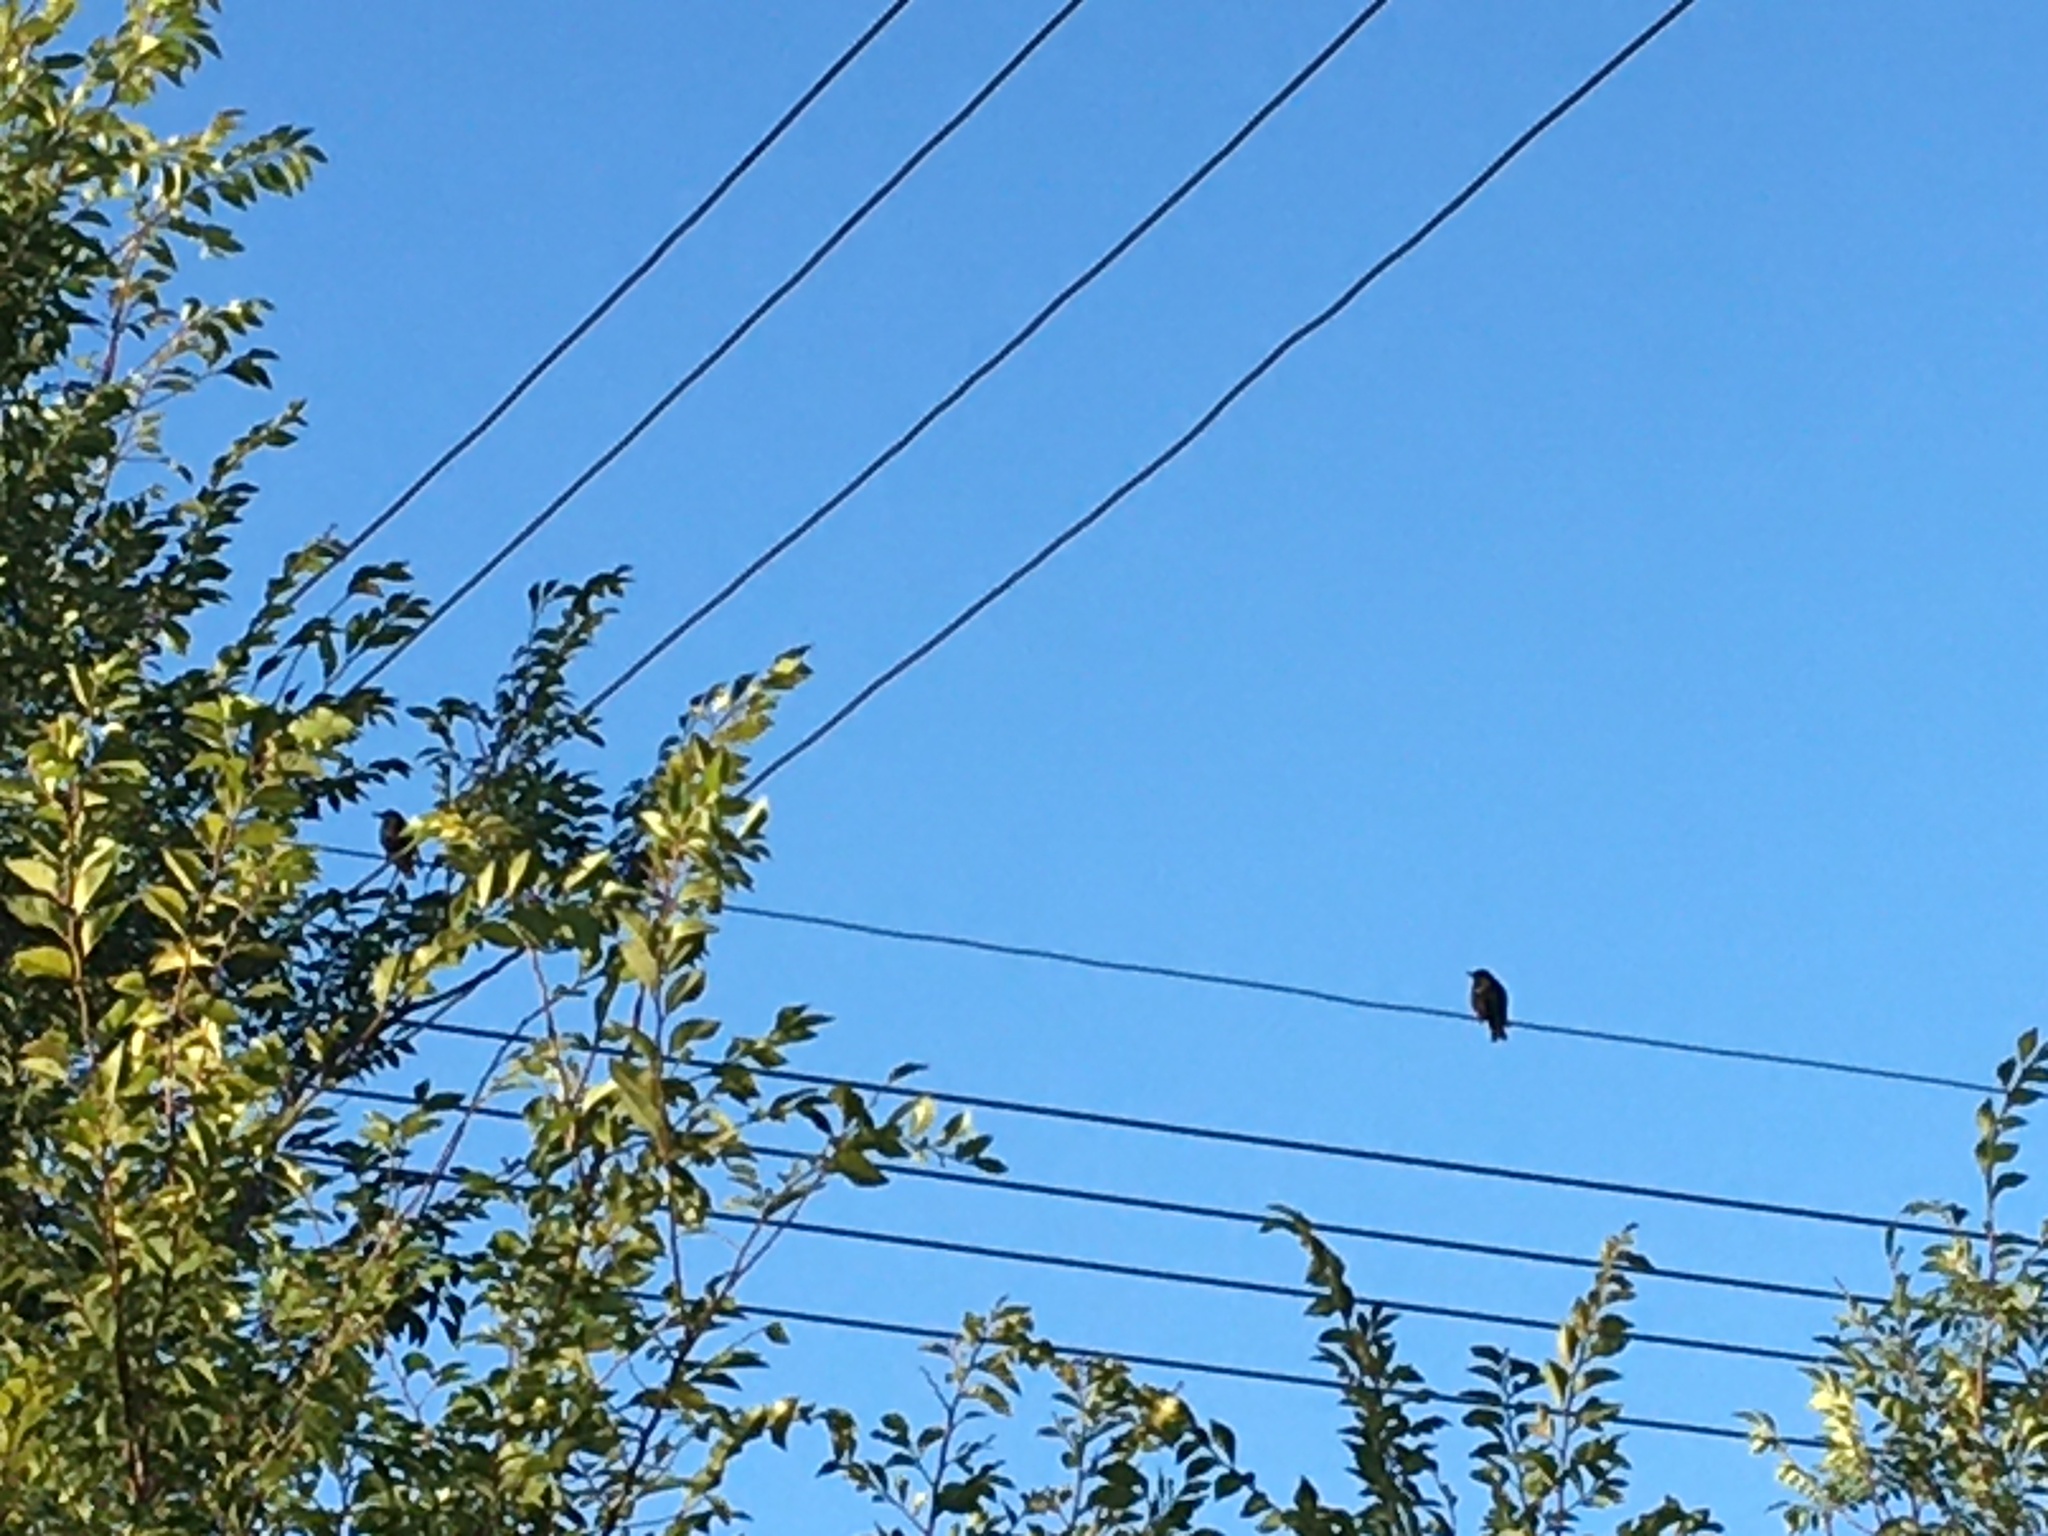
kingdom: Animalia
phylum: Chordata
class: Aves
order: Passeriformes
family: Dicruridae
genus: Dicrurus
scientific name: Dicrurus adsimilis
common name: Fork-tailed drongo
